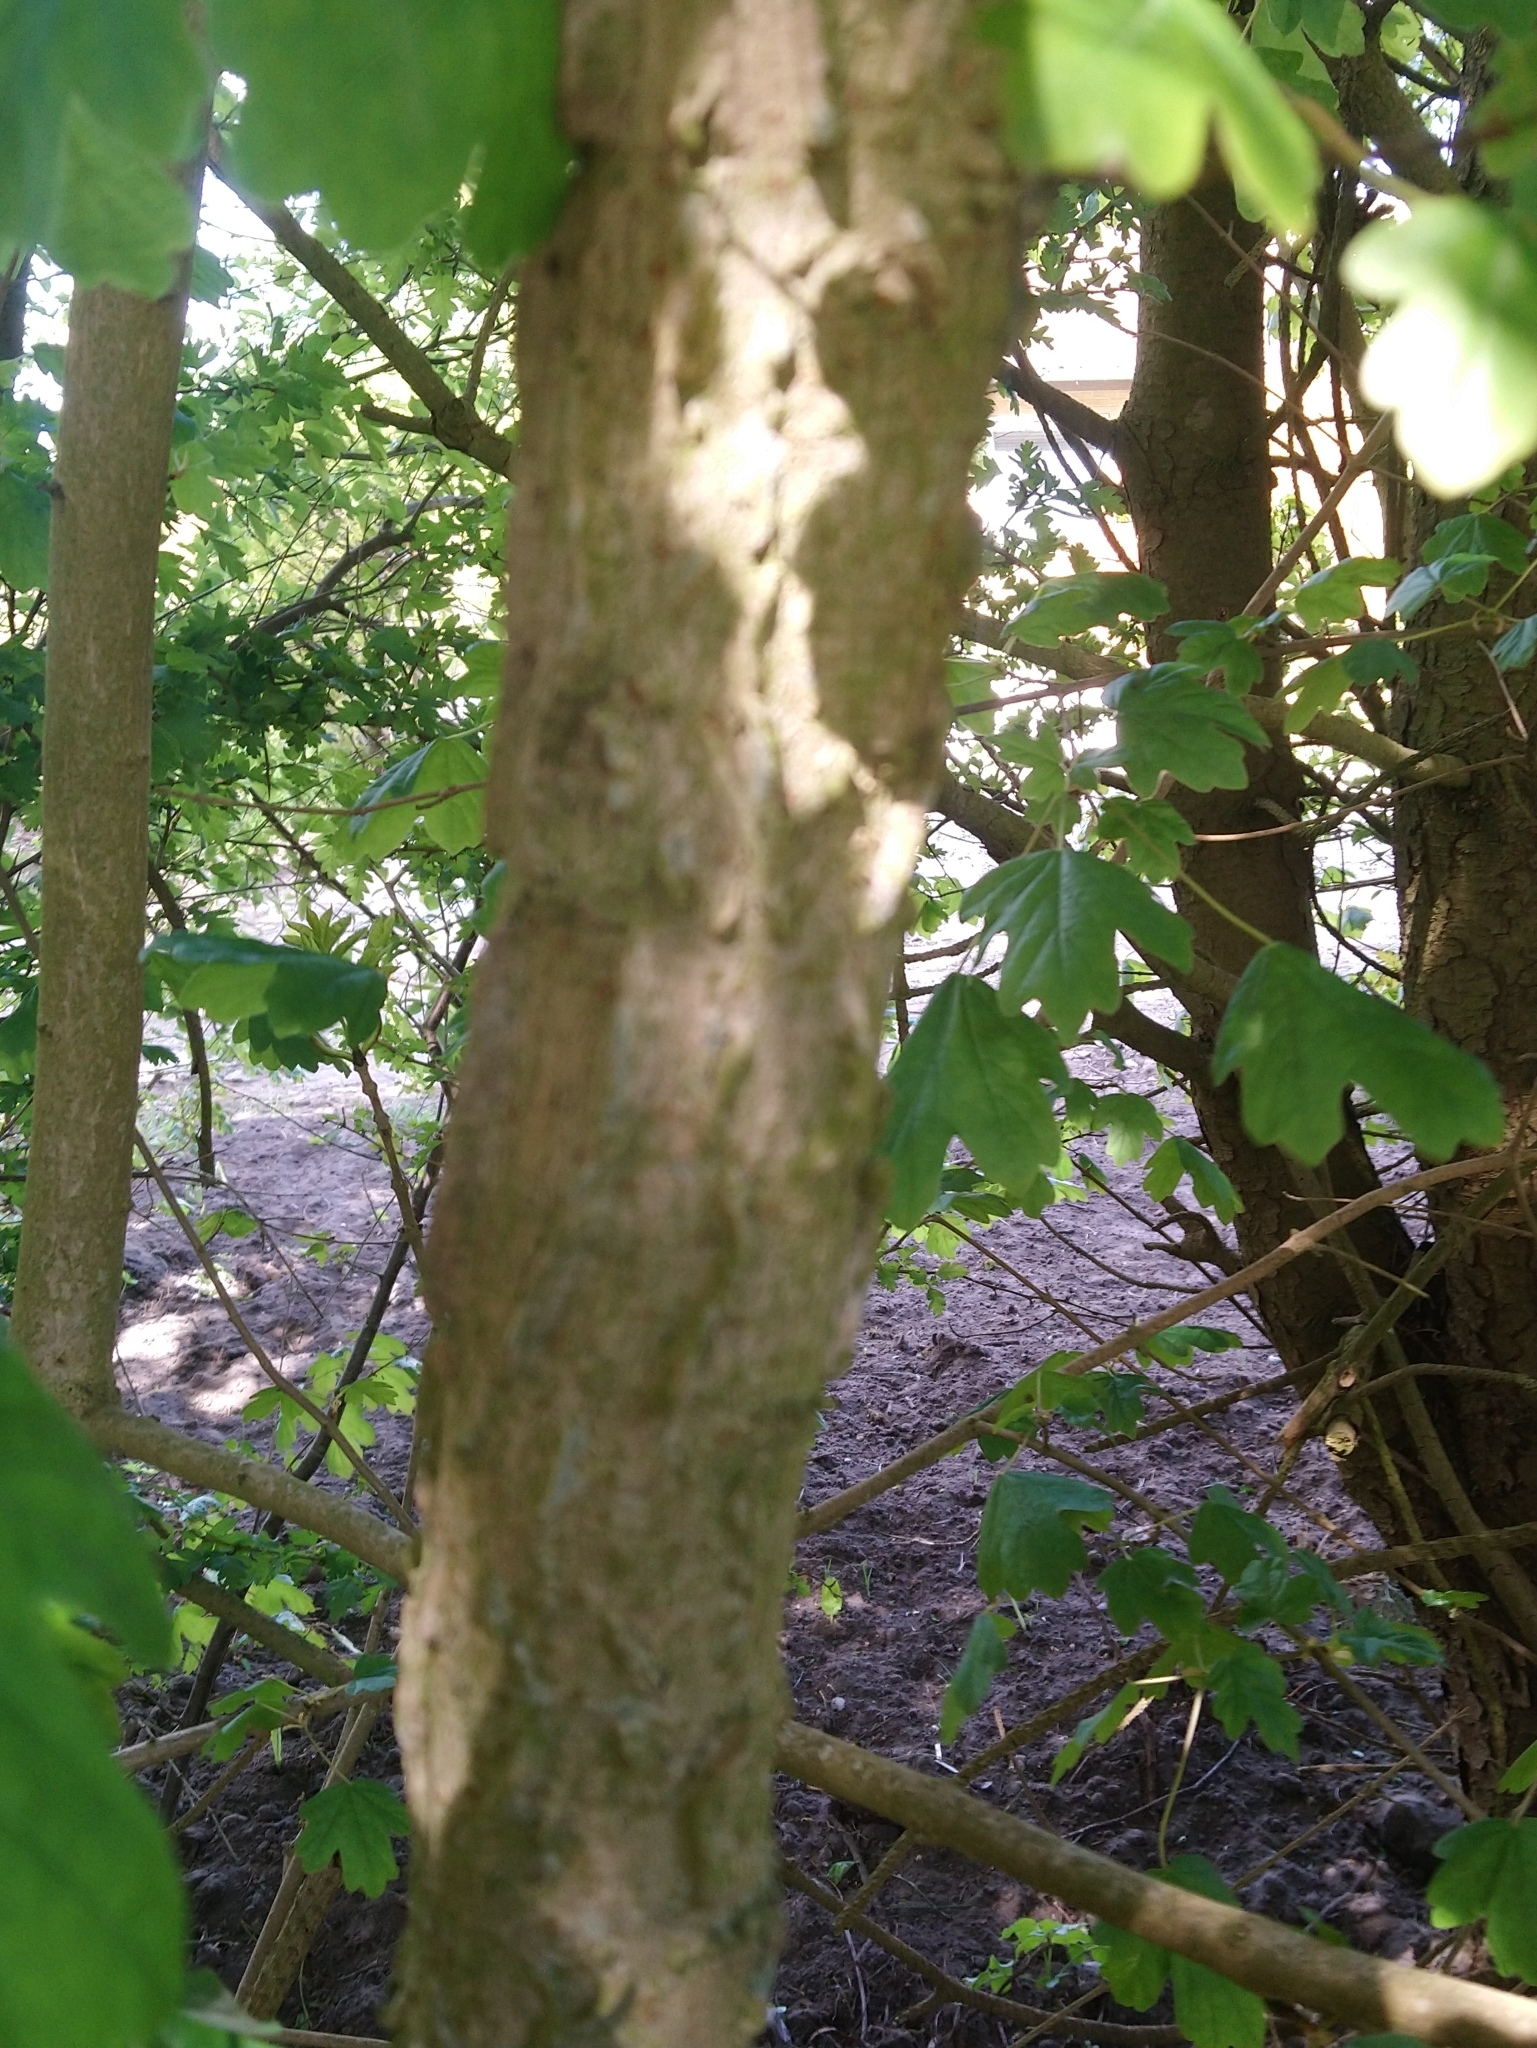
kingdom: Plantae
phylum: Tracheophyta
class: Magnoliopsida
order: Sapindales
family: Sapindaceae
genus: Acer
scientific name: Acer campestre
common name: Field maple
